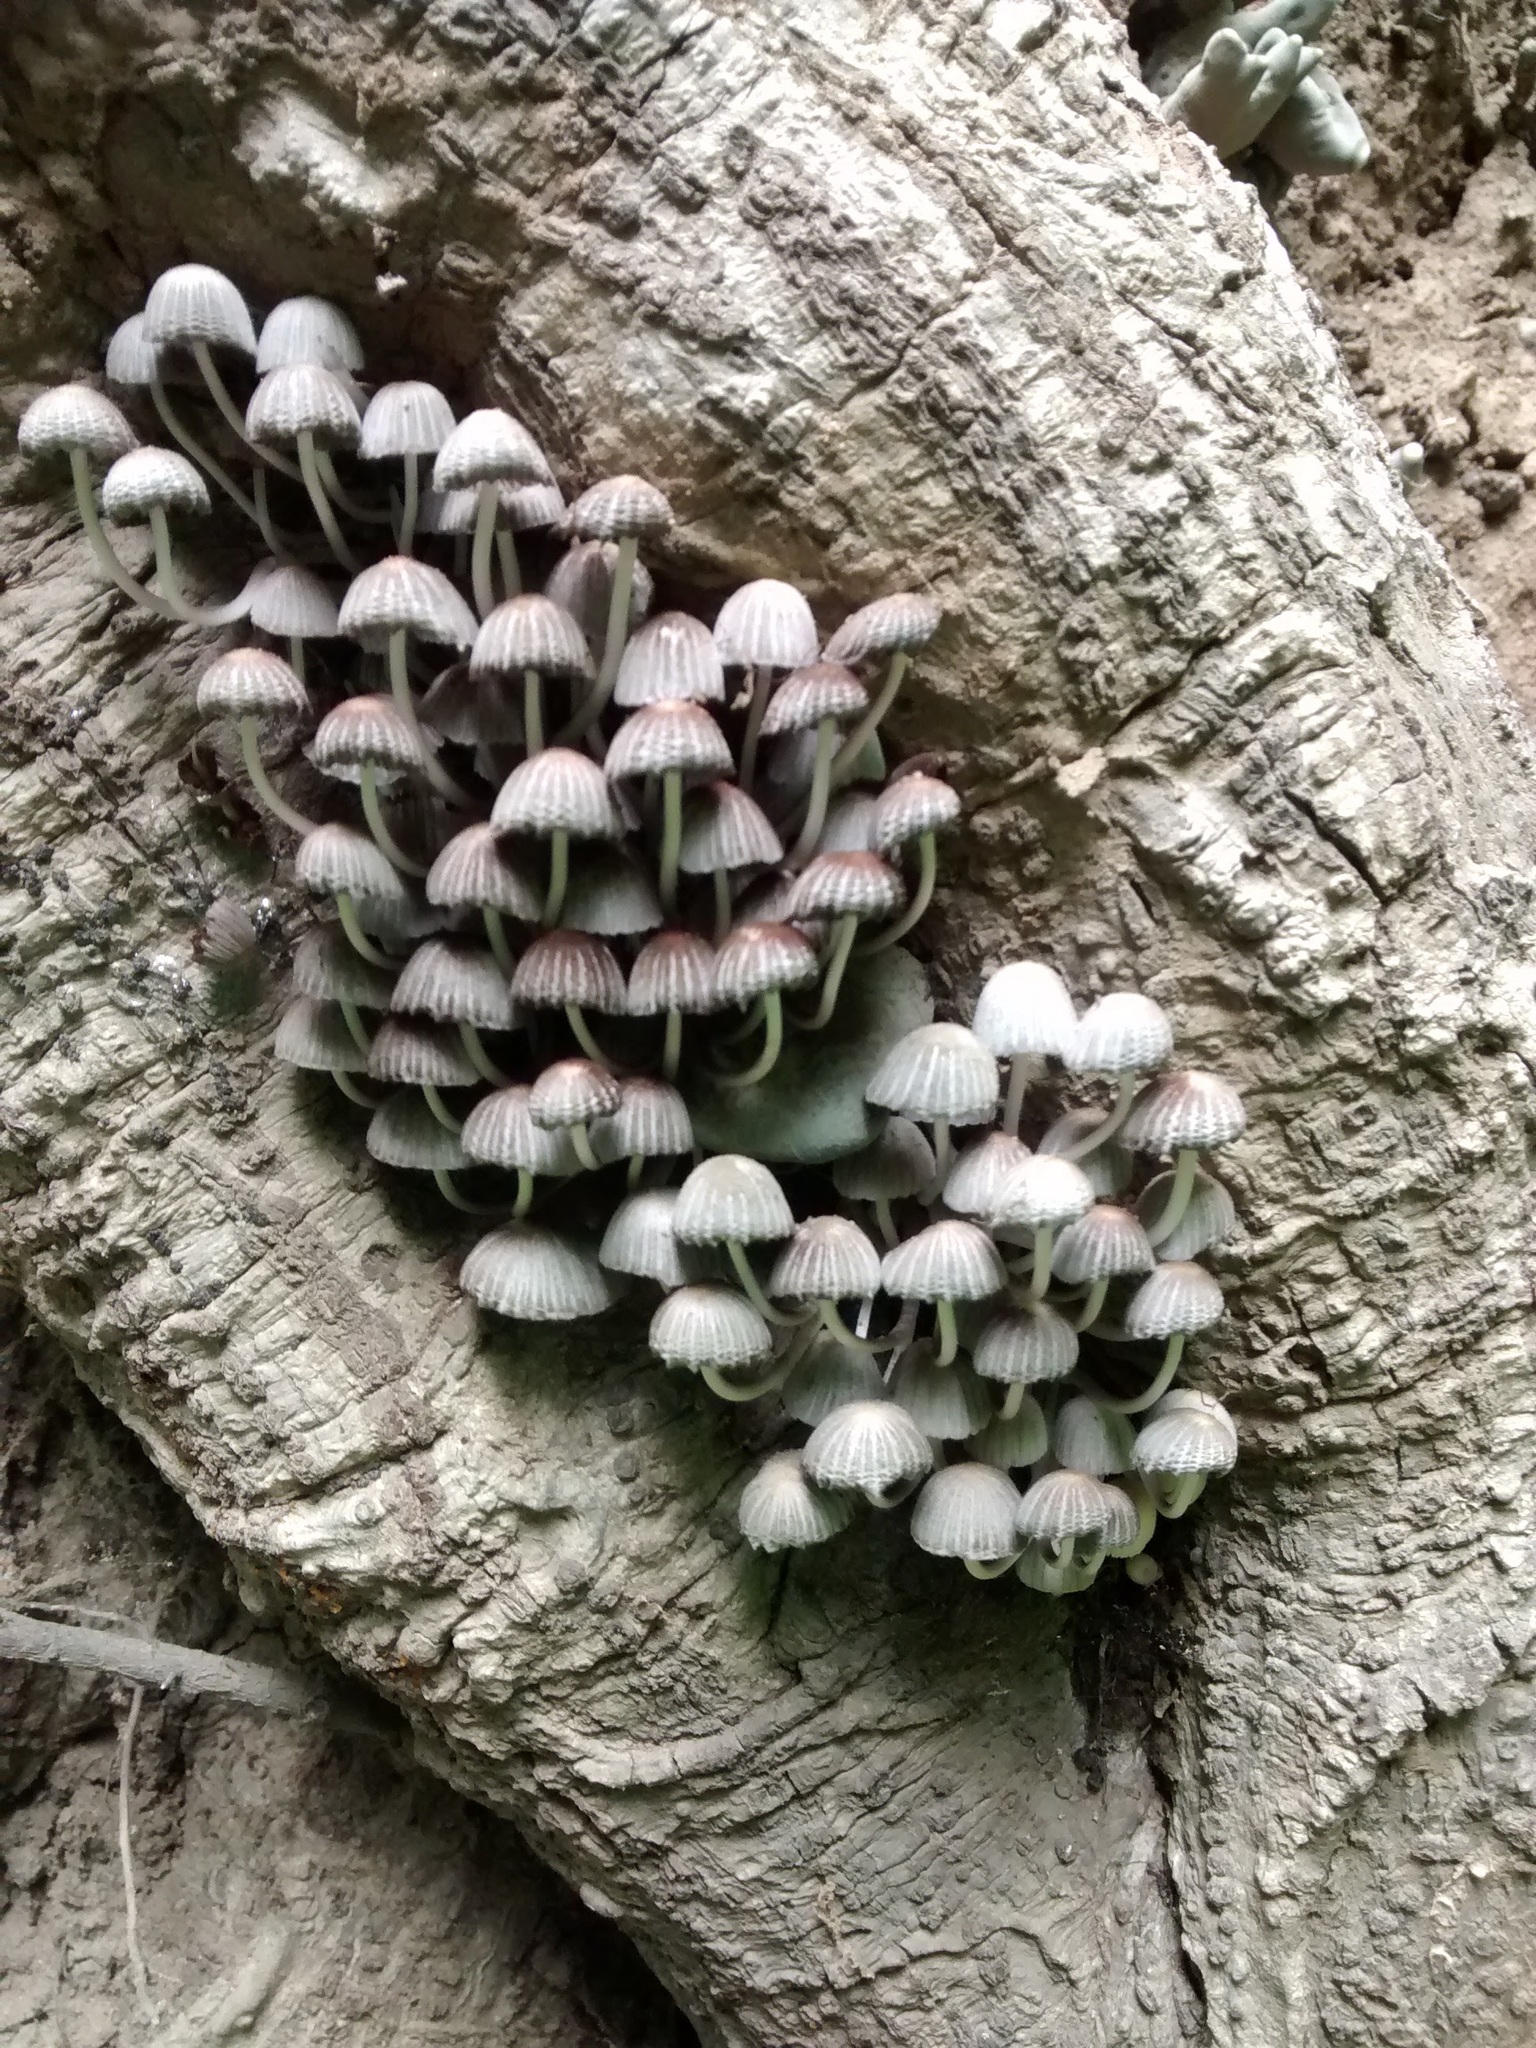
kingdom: Fungi
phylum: Basidiomycota
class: Agaricomycetes
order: Agaricales
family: Psathyrellaceae
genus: Coprinellus
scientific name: Coprinellus disseminatus
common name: Fairies' bonnets
